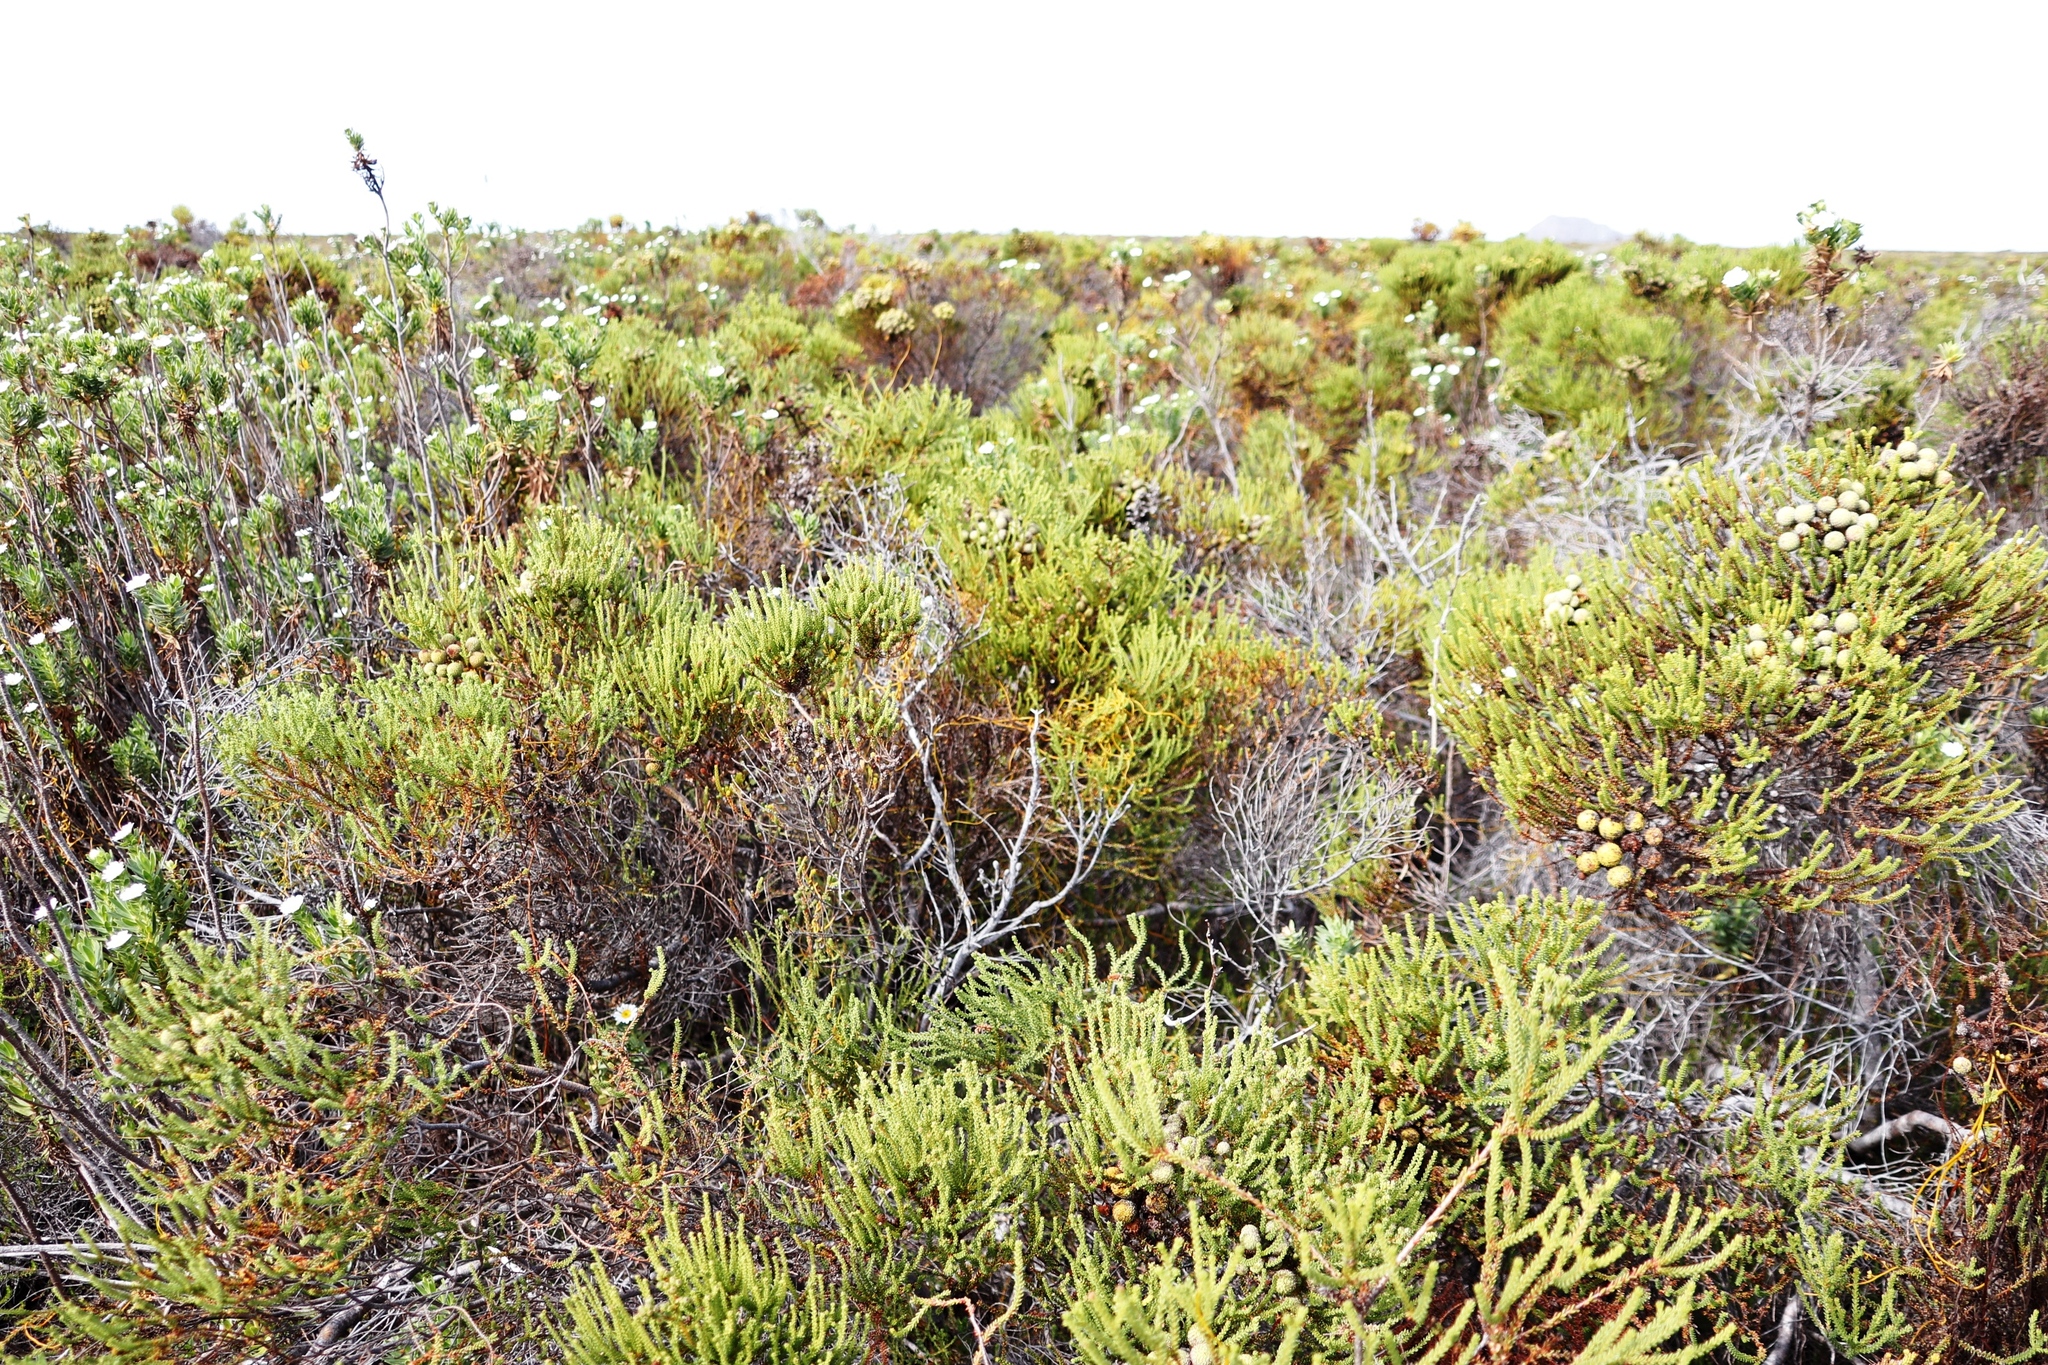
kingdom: Plantae
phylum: Tracheophyta
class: Magnoliopsida
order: Bruniales
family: Bruniaceae
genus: Berzelia
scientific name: Berzelia abrotanoides
